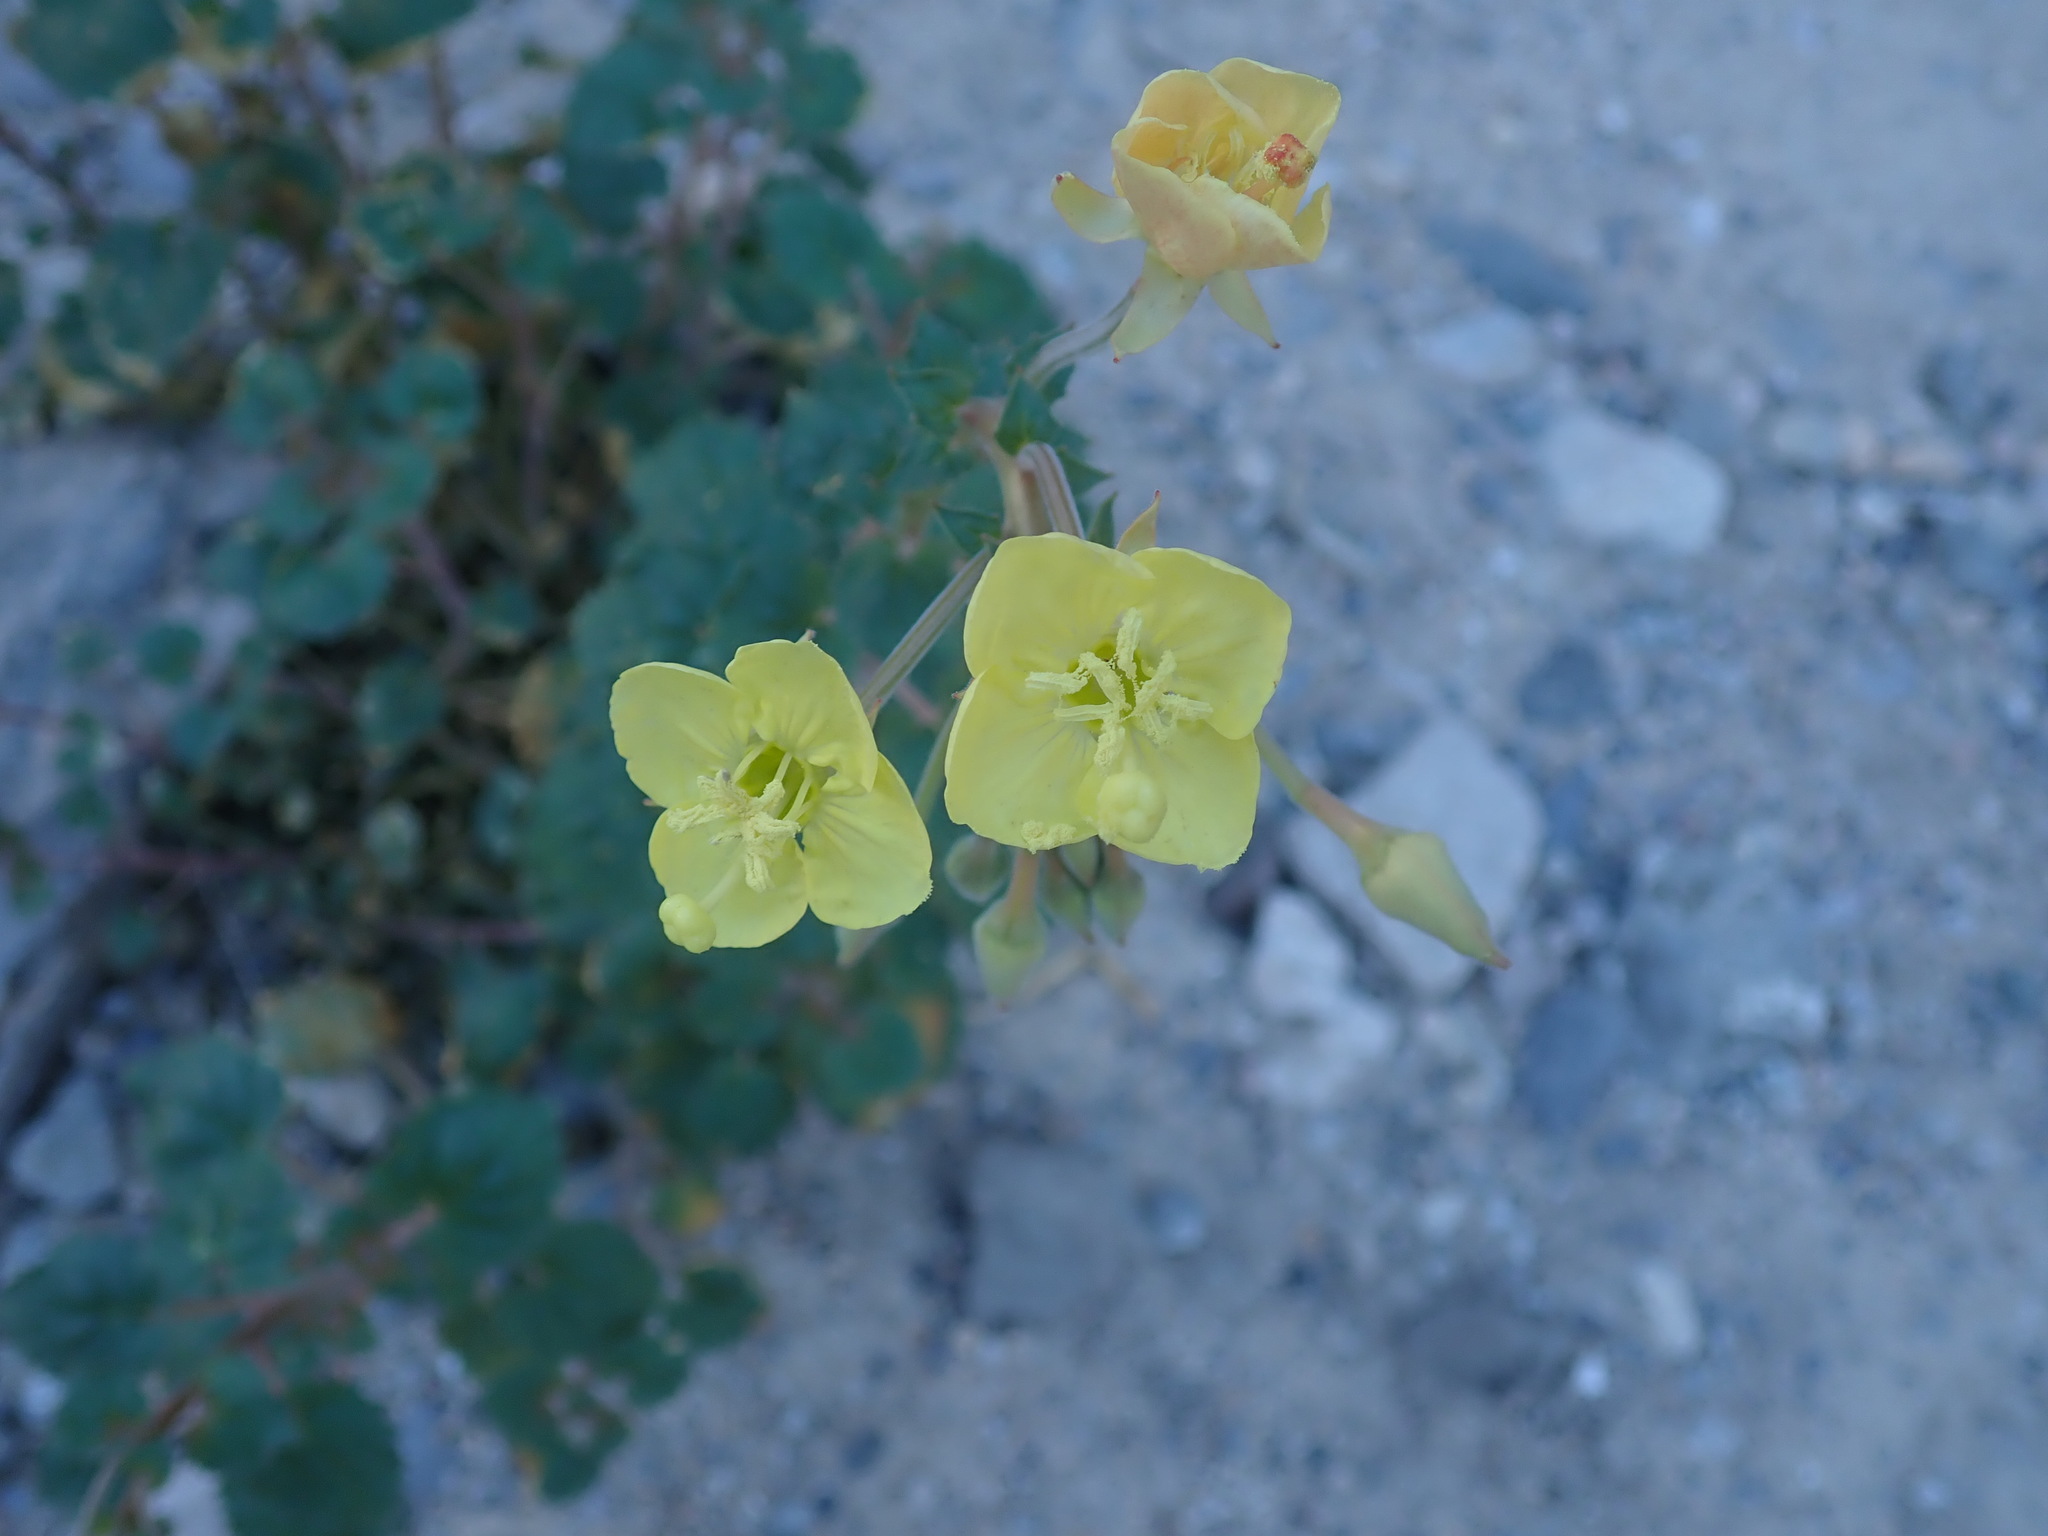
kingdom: Plantae
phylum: Tracheophyta
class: Magnoliopsida
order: Myrtales
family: Onagraceae
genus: Chylismia
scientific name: Chylismia cardiophylla
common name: Heartleaf suncup
